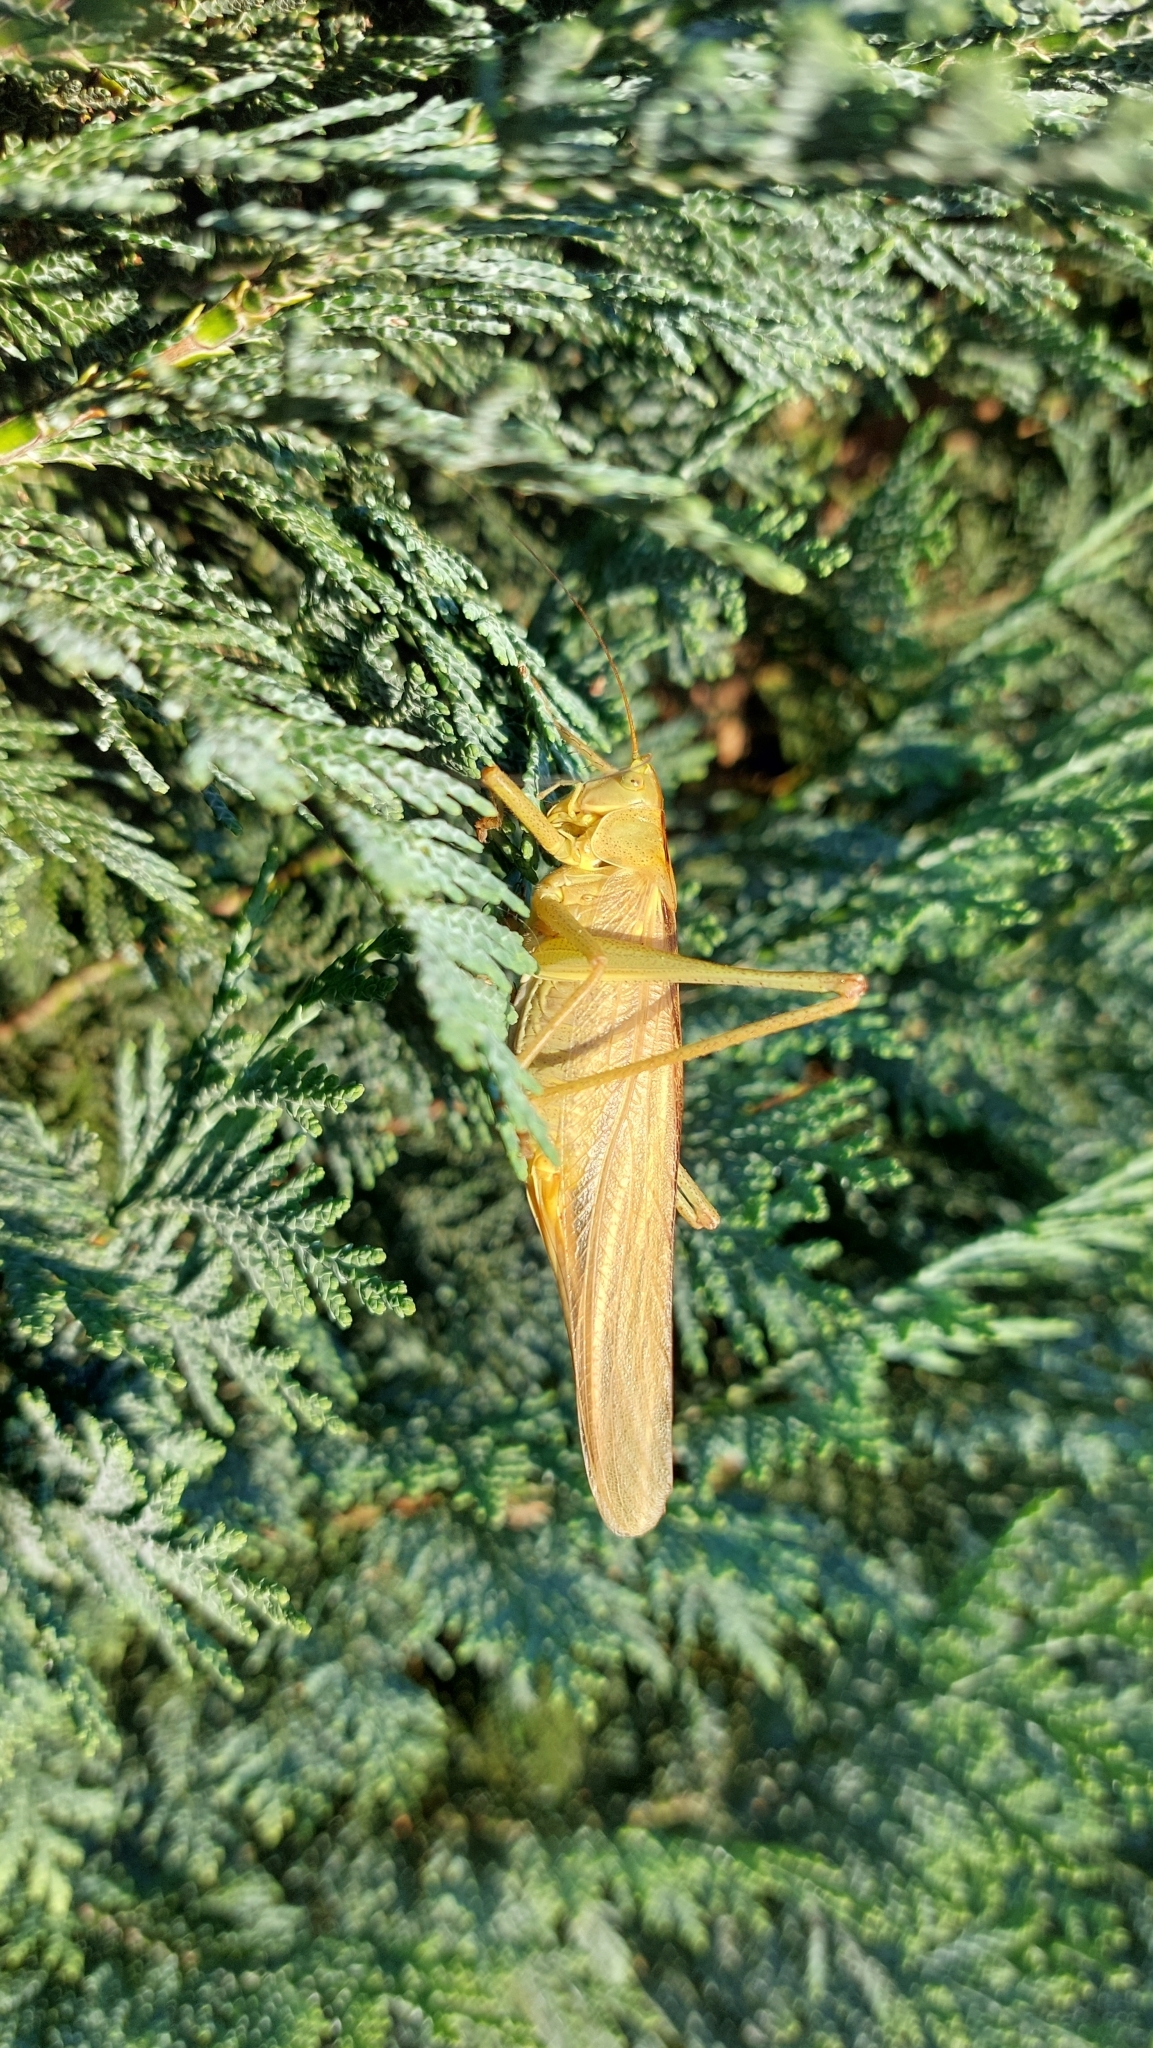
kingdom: Animalia
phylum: Arthropoda
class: Insecta
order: Orthoptera
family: Tettigoniidae
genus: Tettigonia
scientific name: Tettigonia viridissima
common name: Great green bush-cricket
